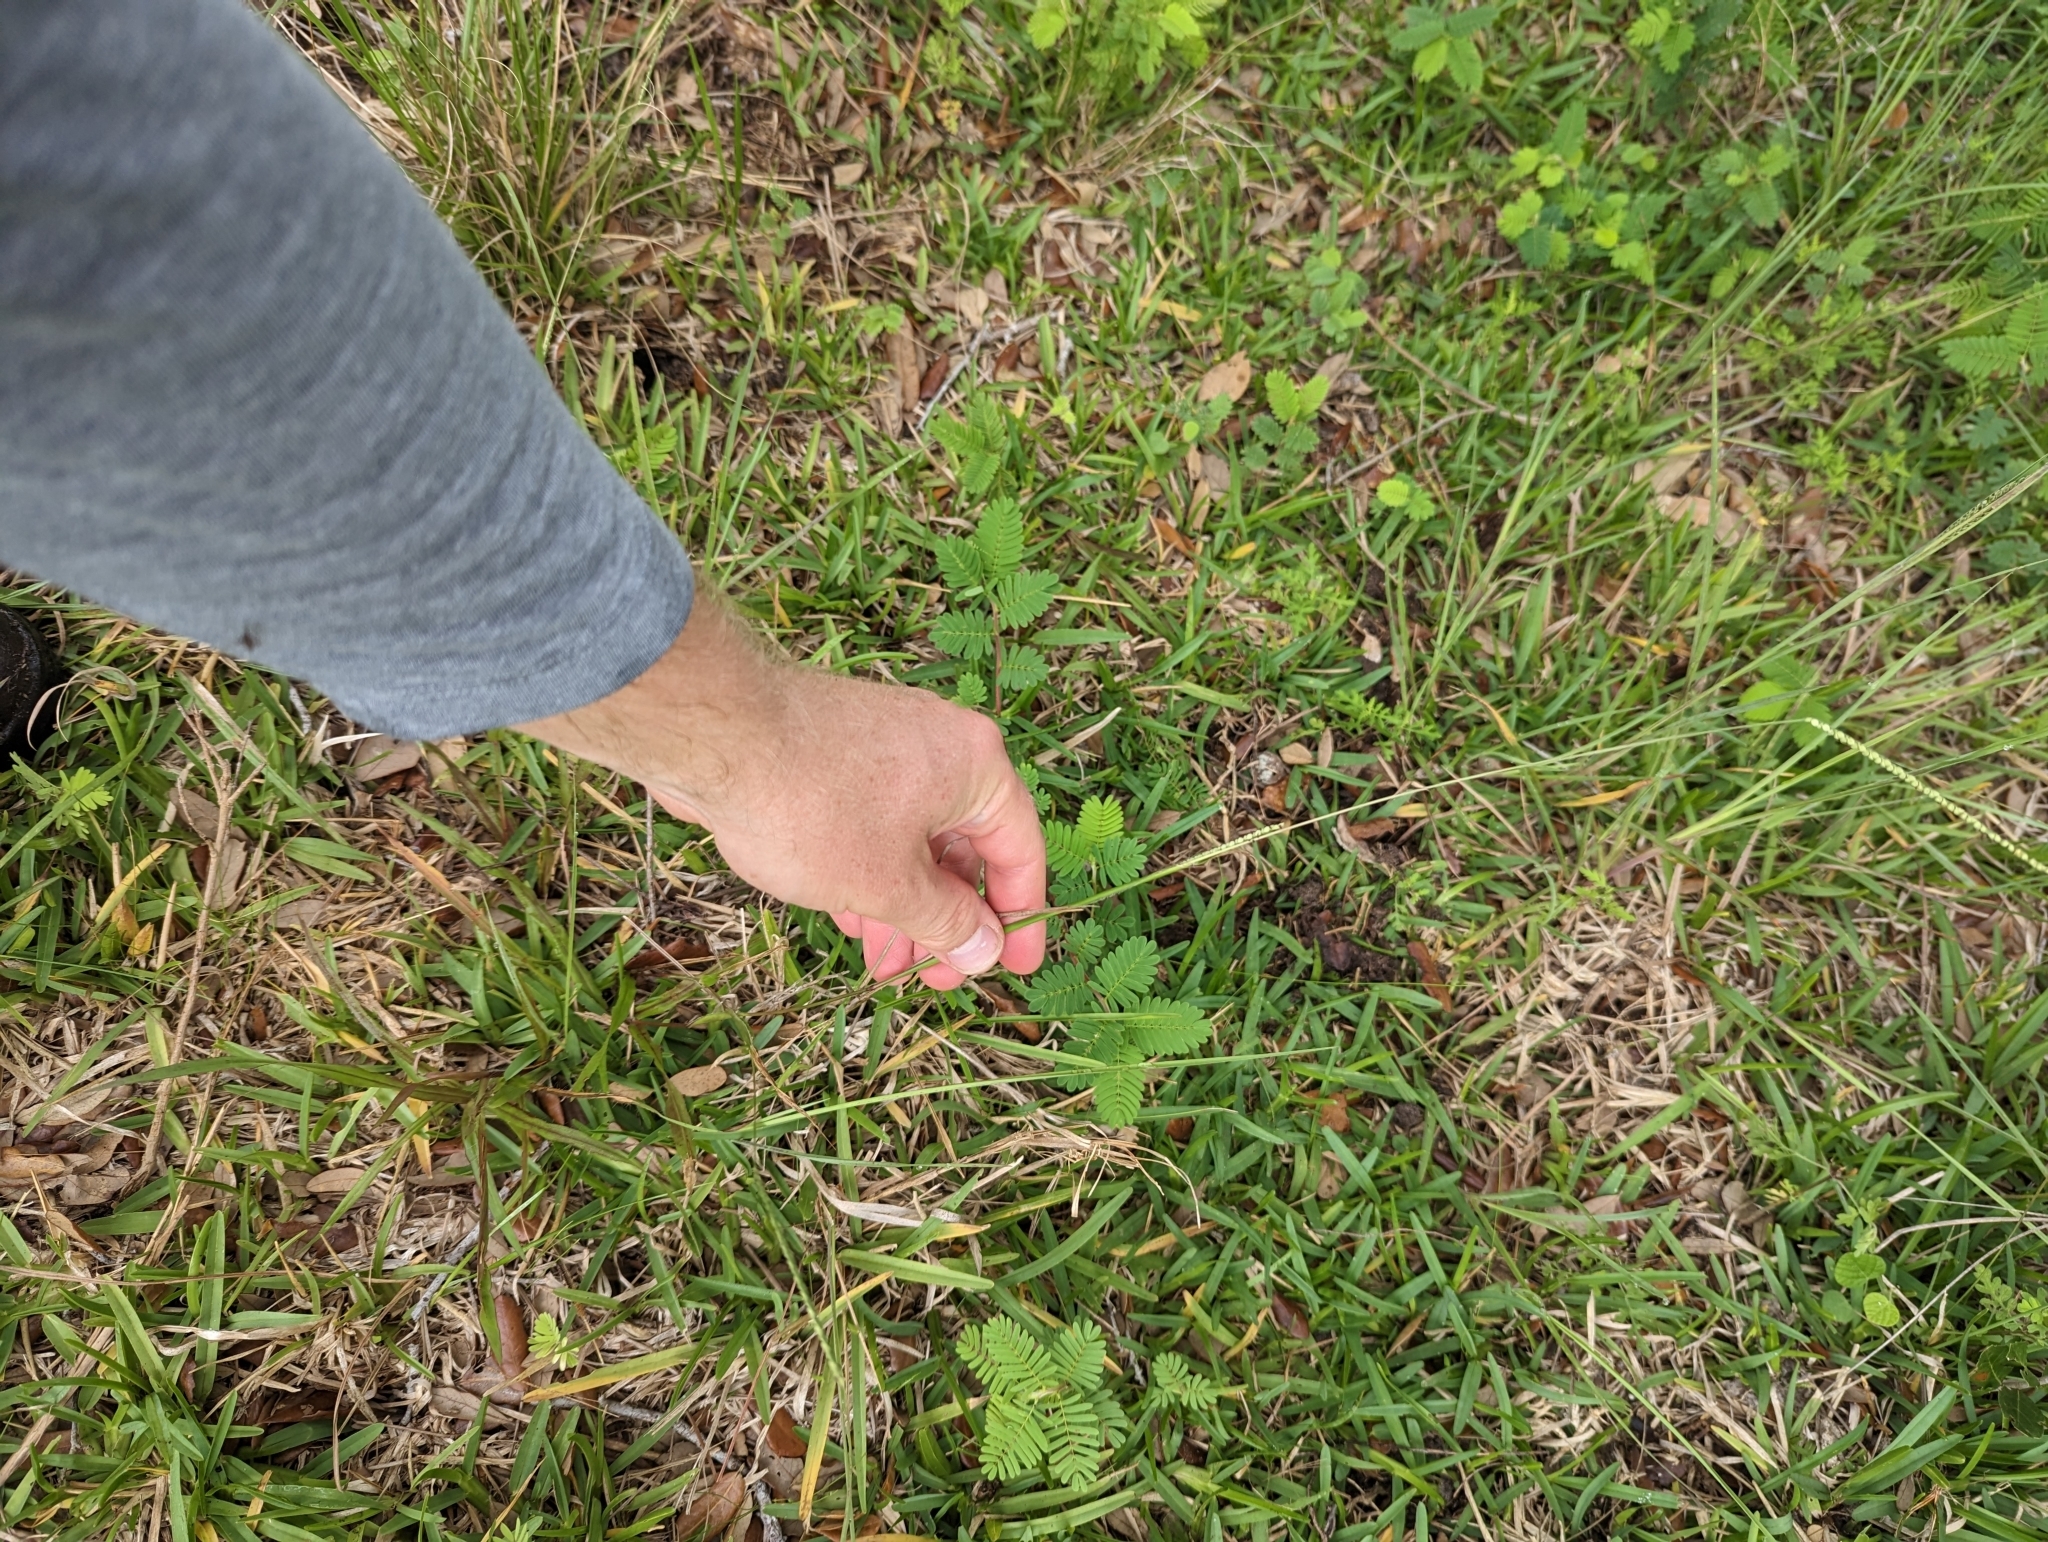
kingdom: Plantae
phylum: Tracheophyta
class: Liliopsida
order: Poales
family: Poaceae
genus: Paspalum
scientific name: Paspalum setaceum
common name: Slender paspalum
